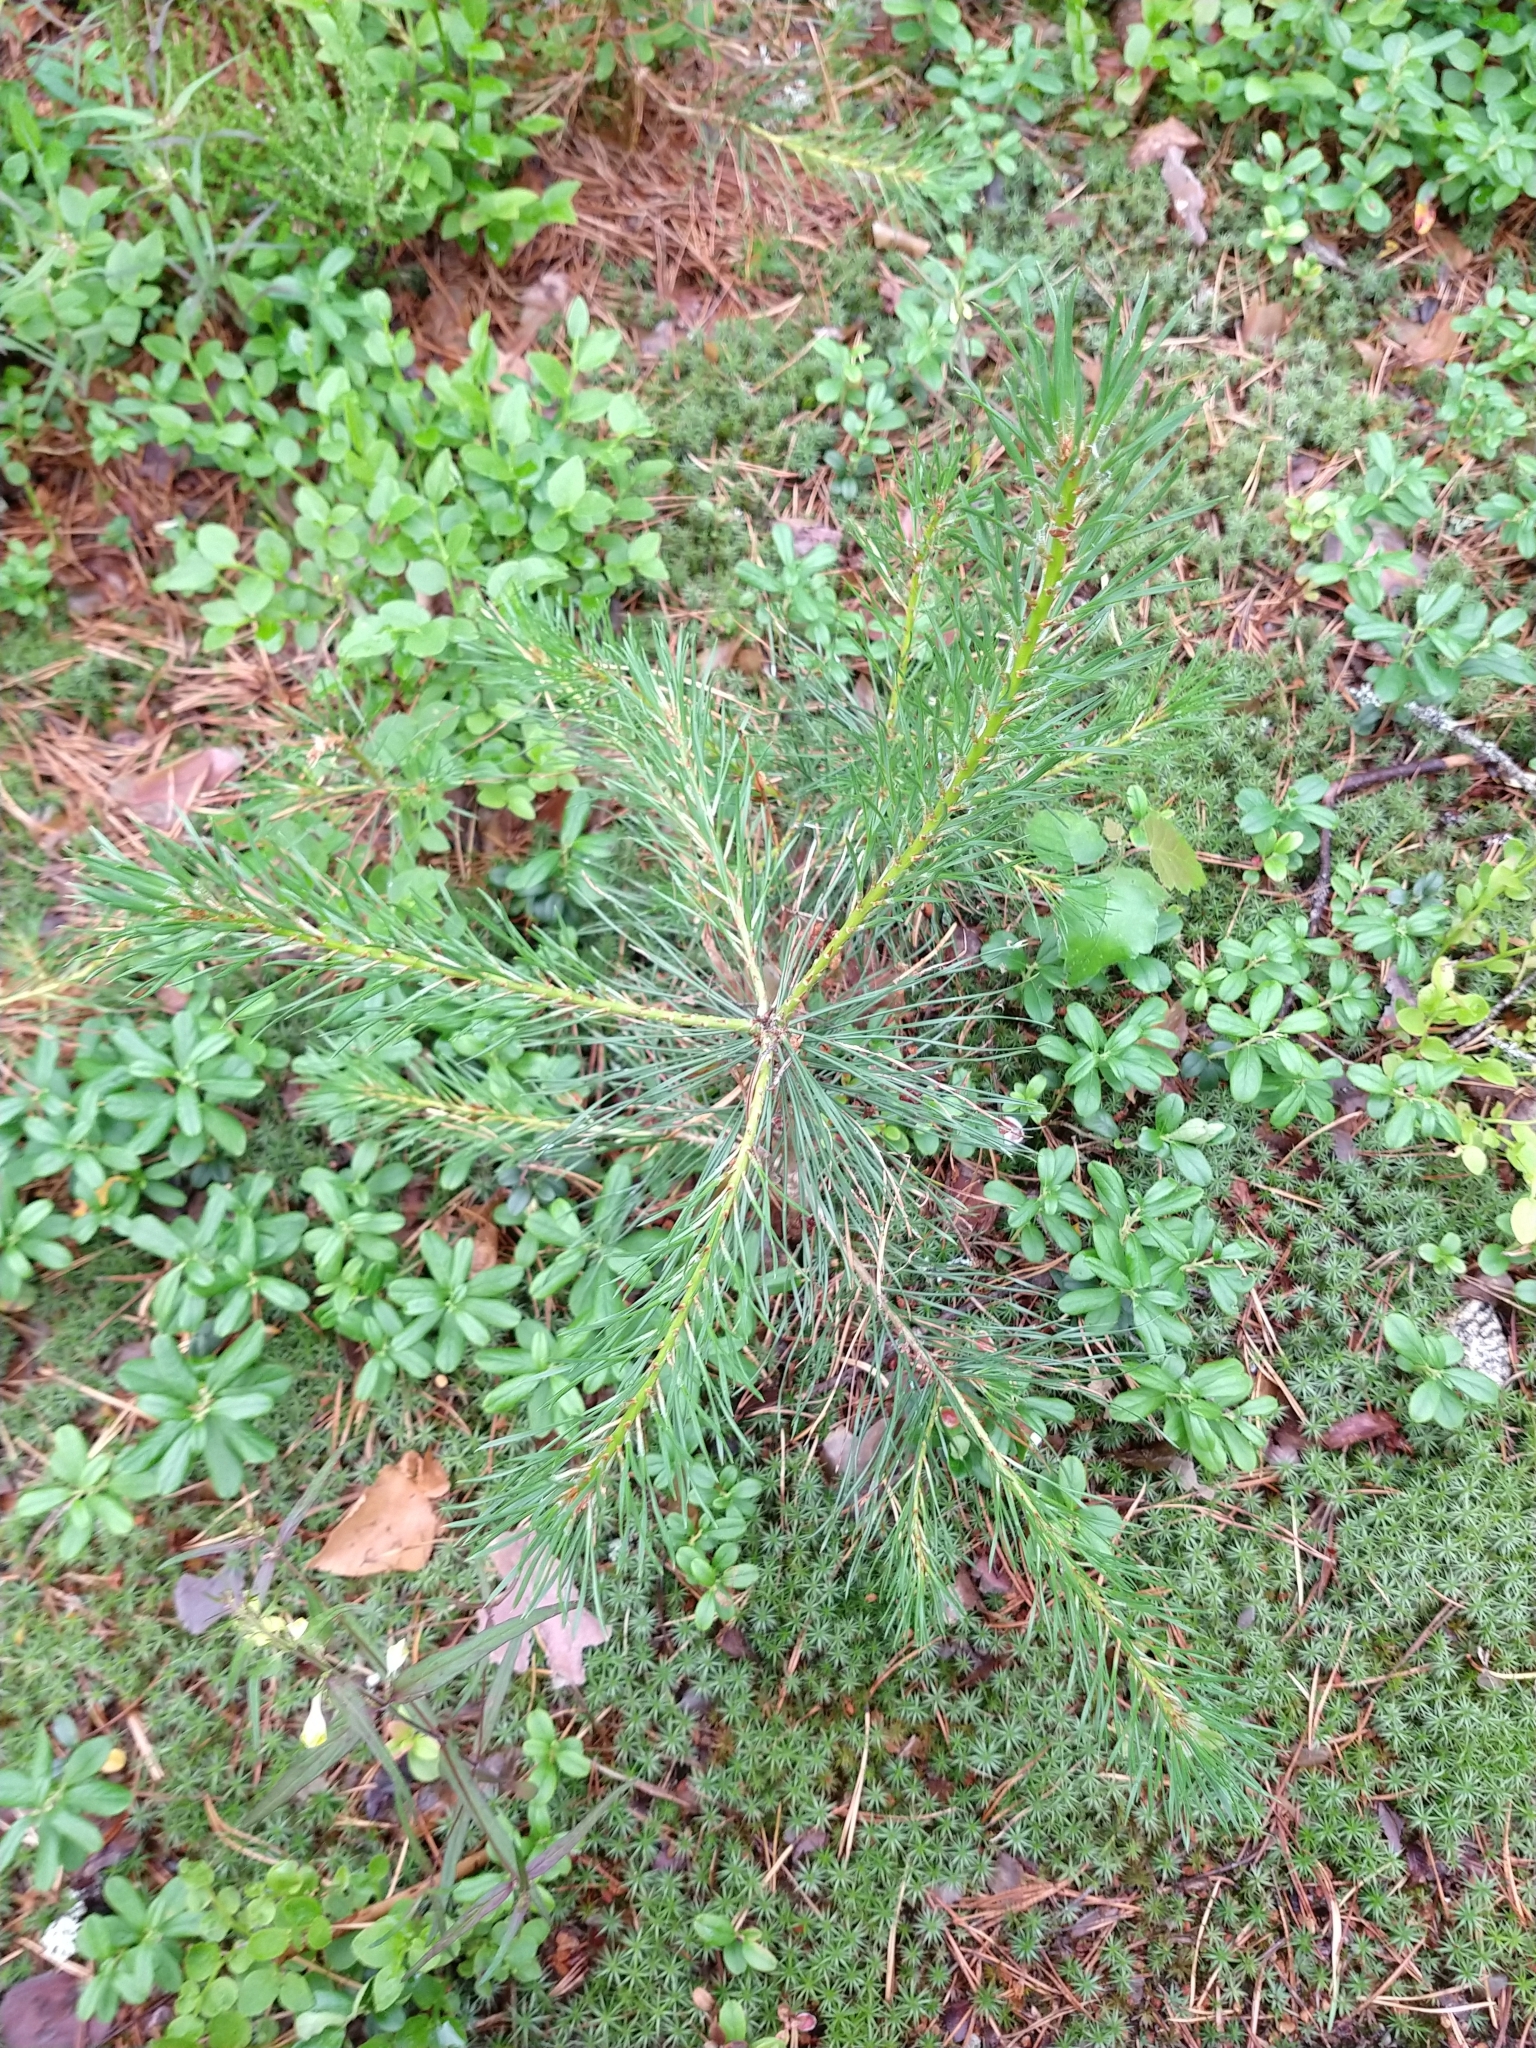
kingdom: Plantae
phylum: Tracheophyta
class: Pinopsida
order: Pinales
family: Pinaceae
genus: Pinus
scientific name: Pinus sylvestris
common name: Scots pine
